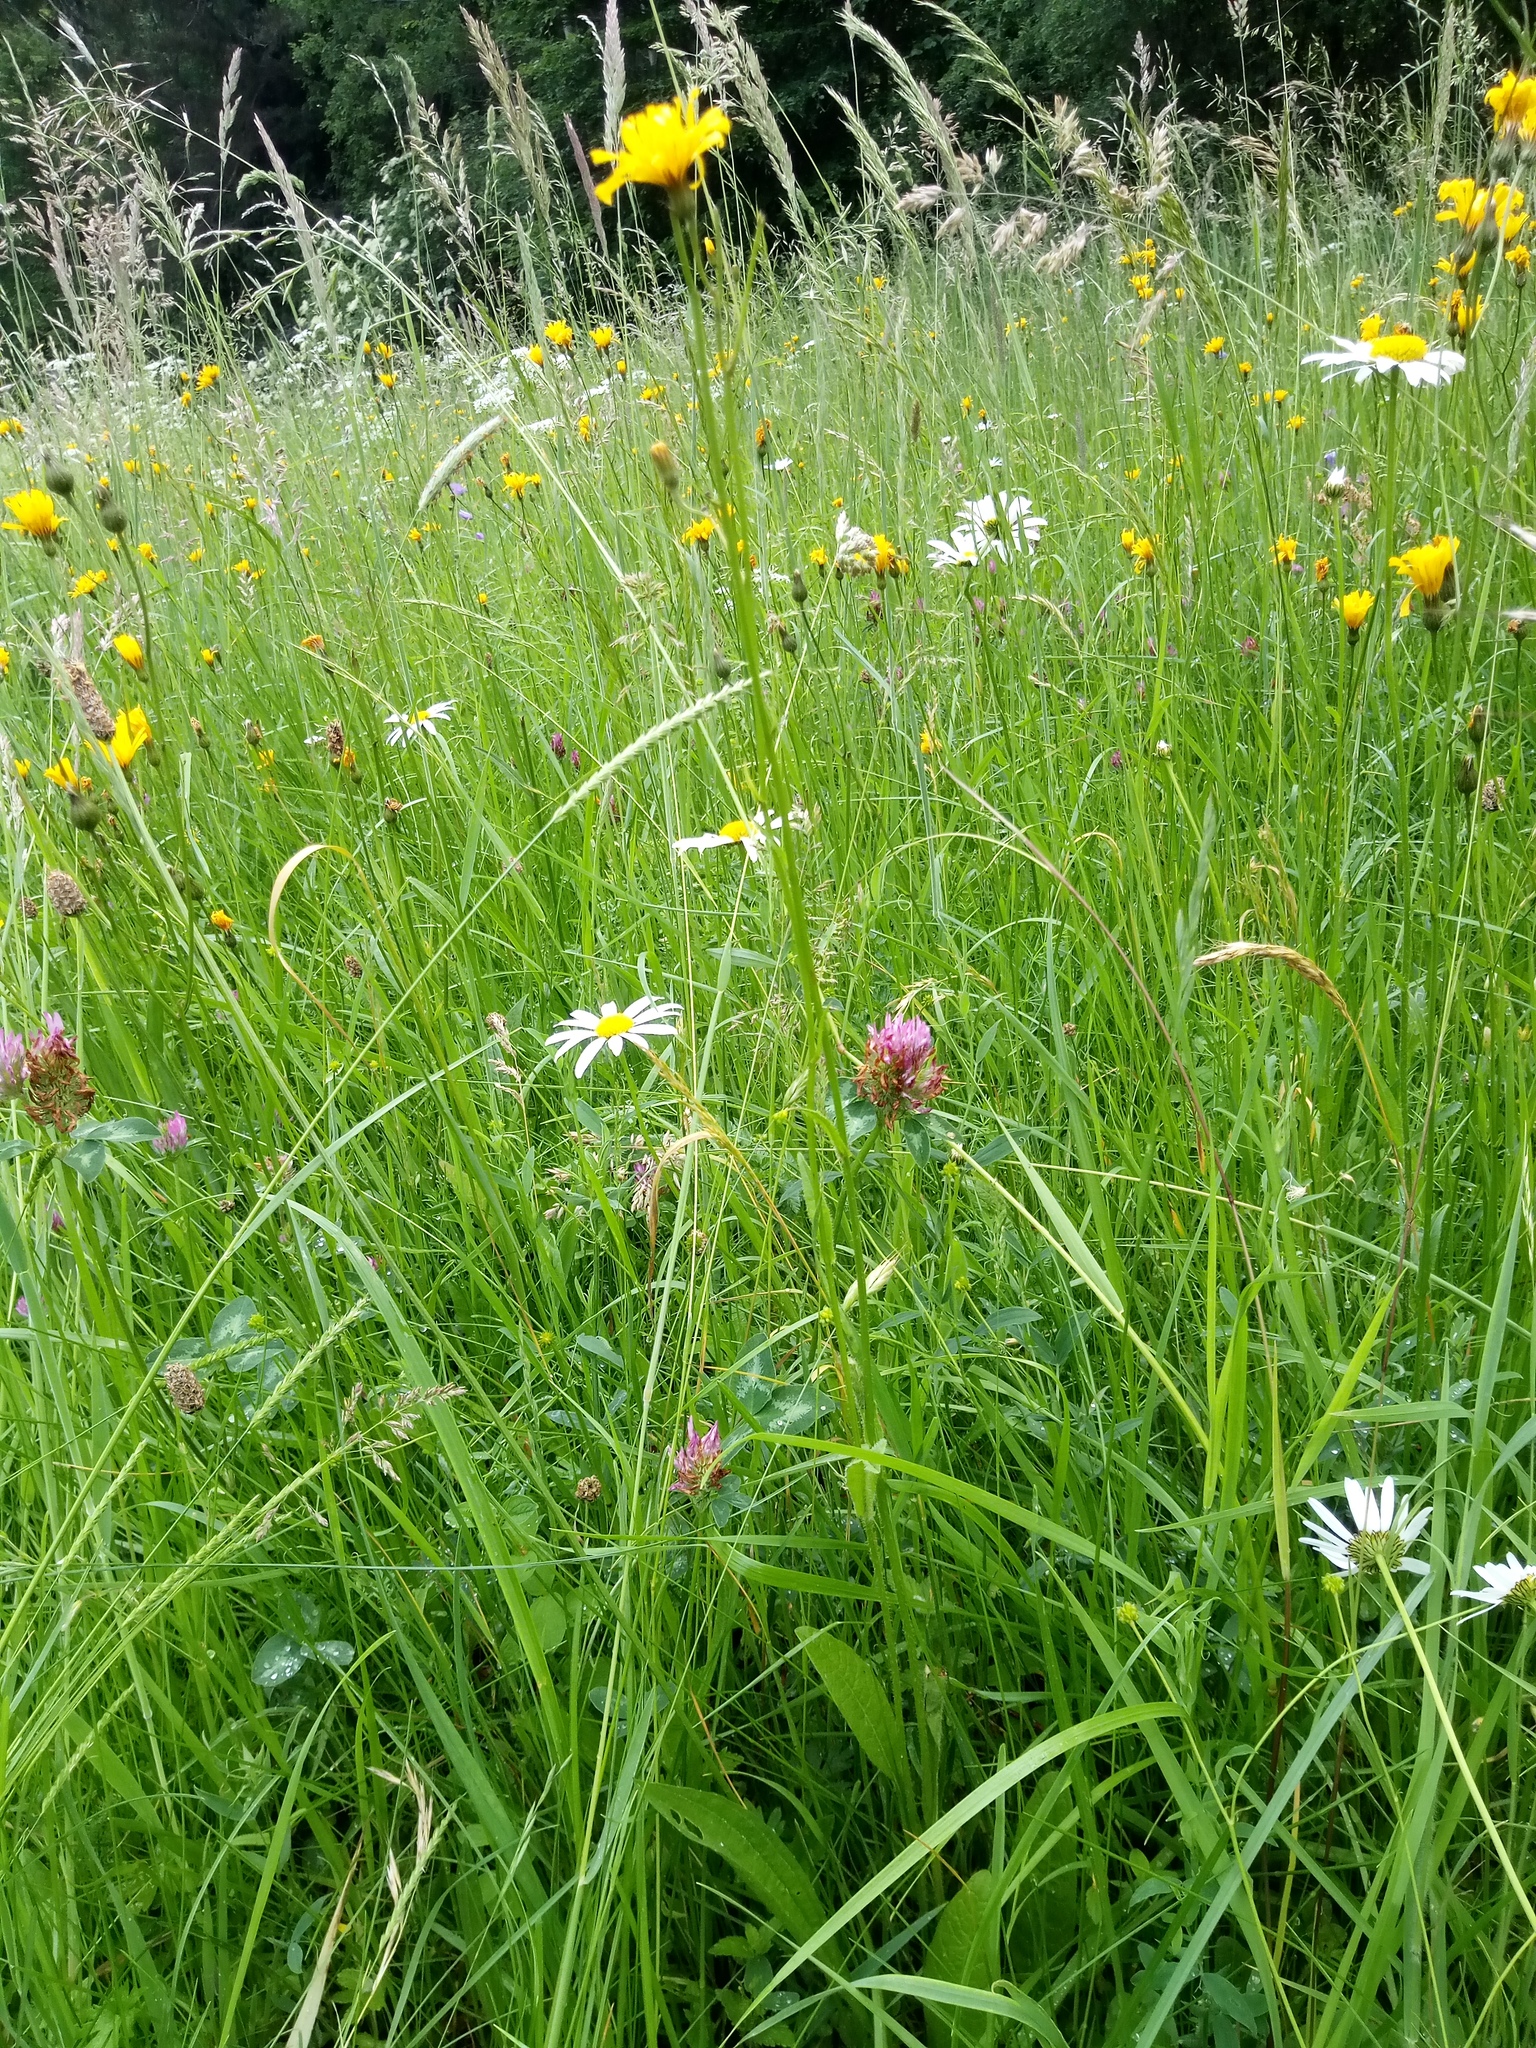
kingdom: Plantae
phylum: Tracheophyta
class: Magnoliopsida
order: Asterales
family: Asteraceae
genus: Crepis
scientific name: Crepis mollis
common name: Northern hawk's-beard
